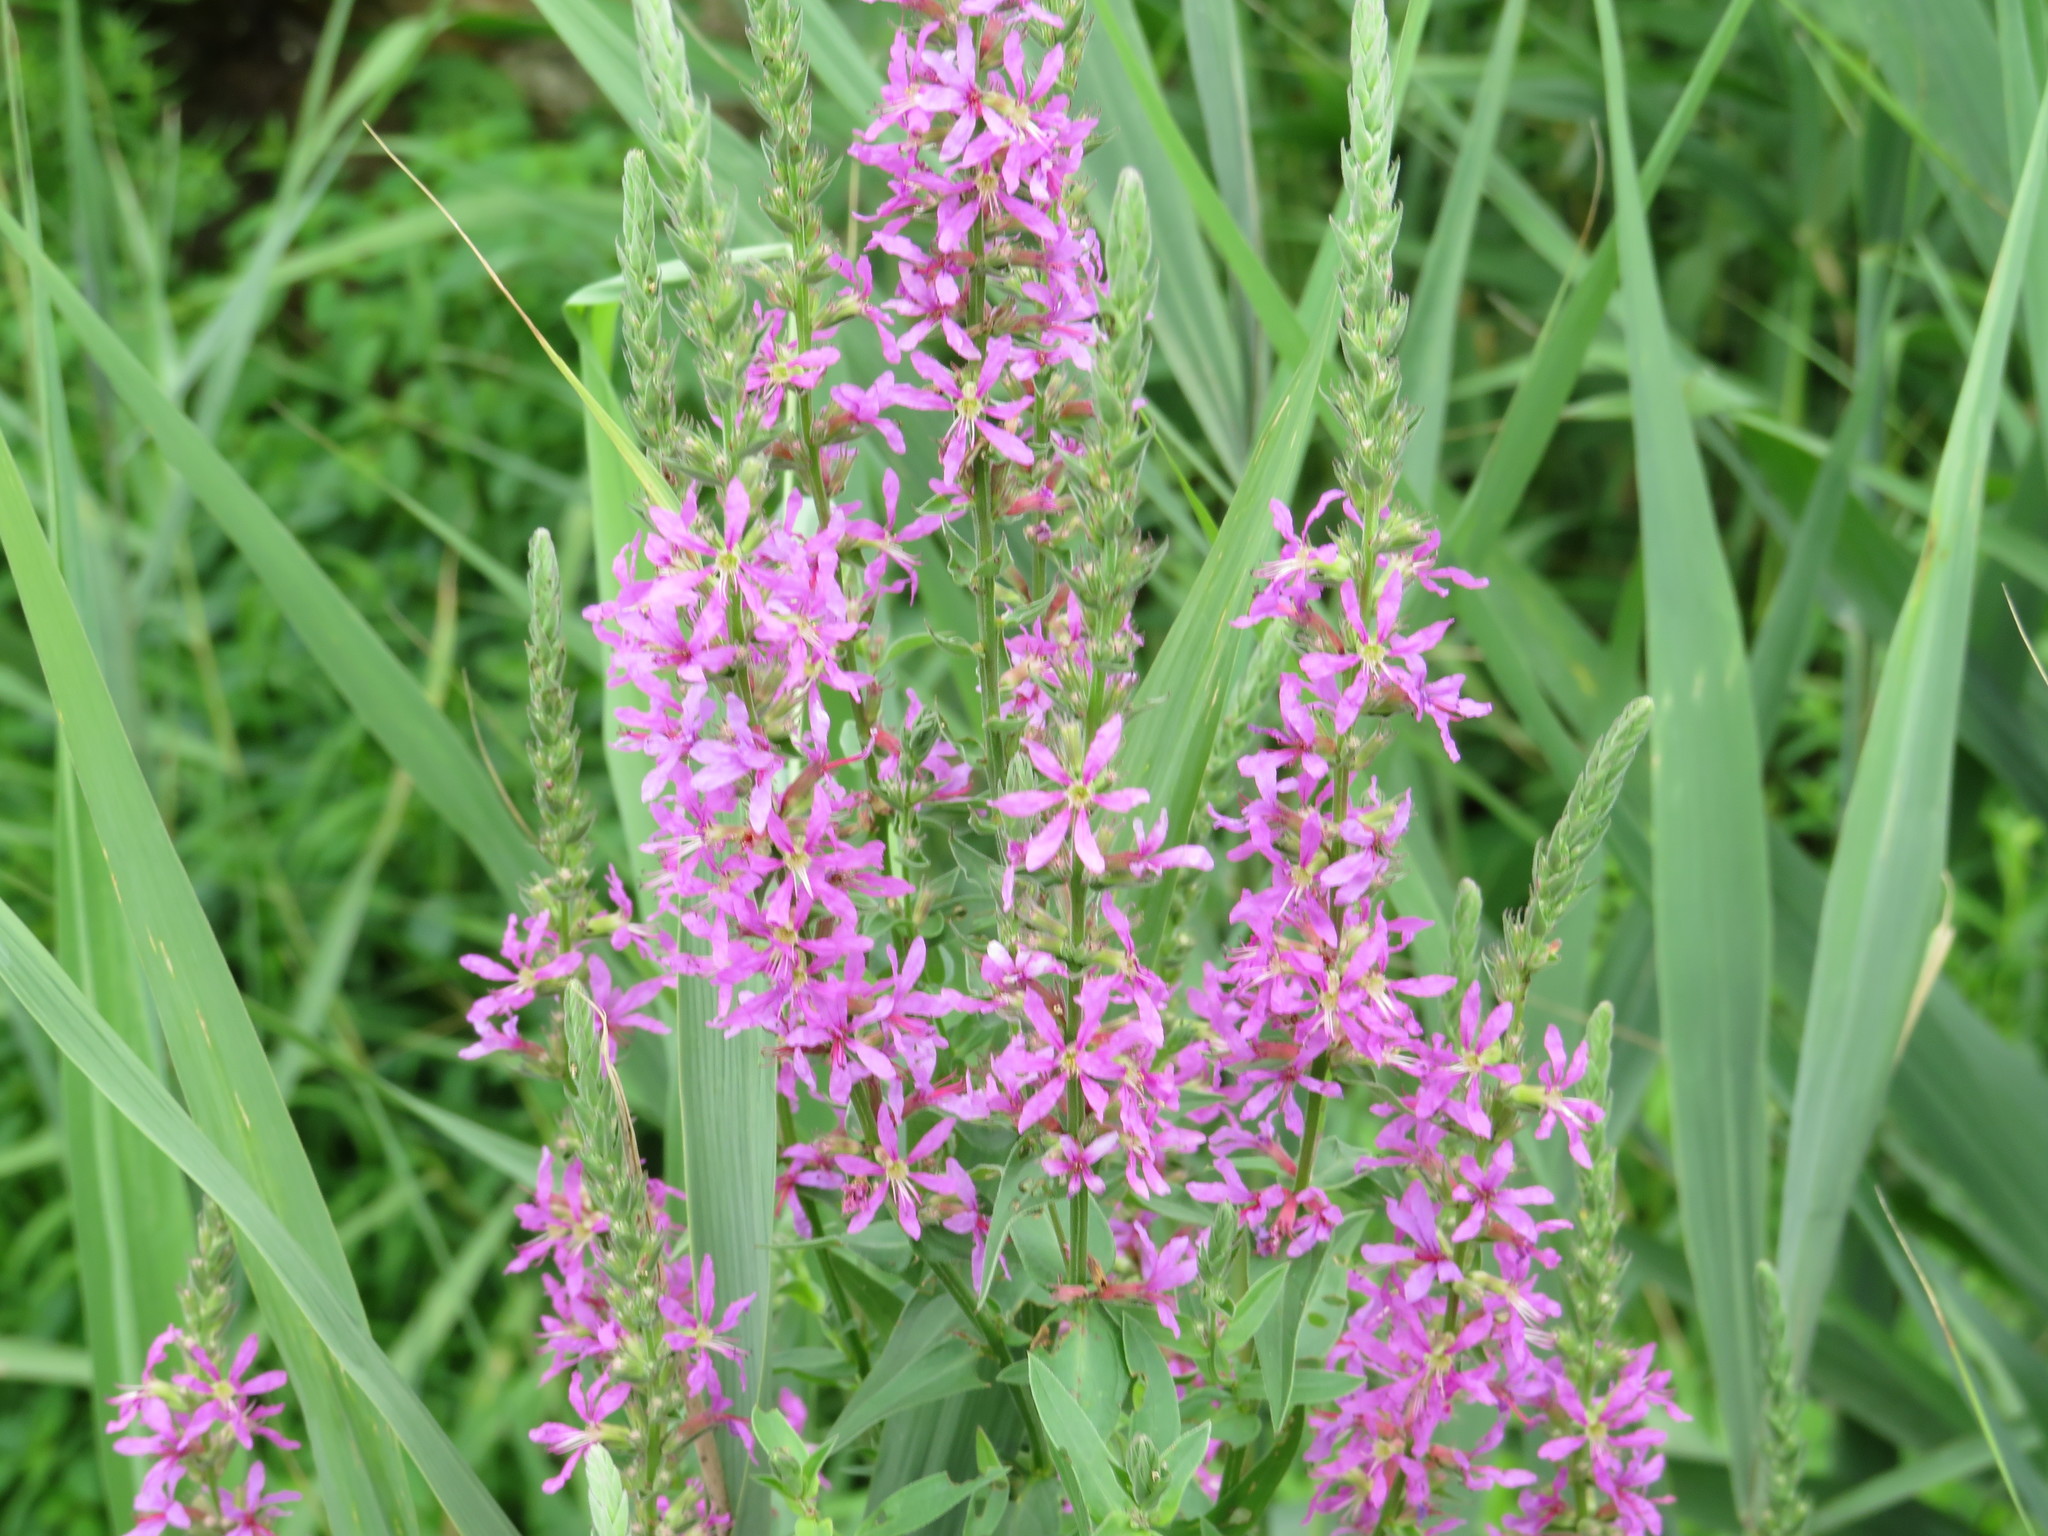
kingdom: Plantae
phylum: Tracheophyta
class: Magnoliopsida
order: Myrtales
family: Lythraceae
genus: Lythrum
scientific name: Lythrum salicaria
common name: Purple loosestrife
